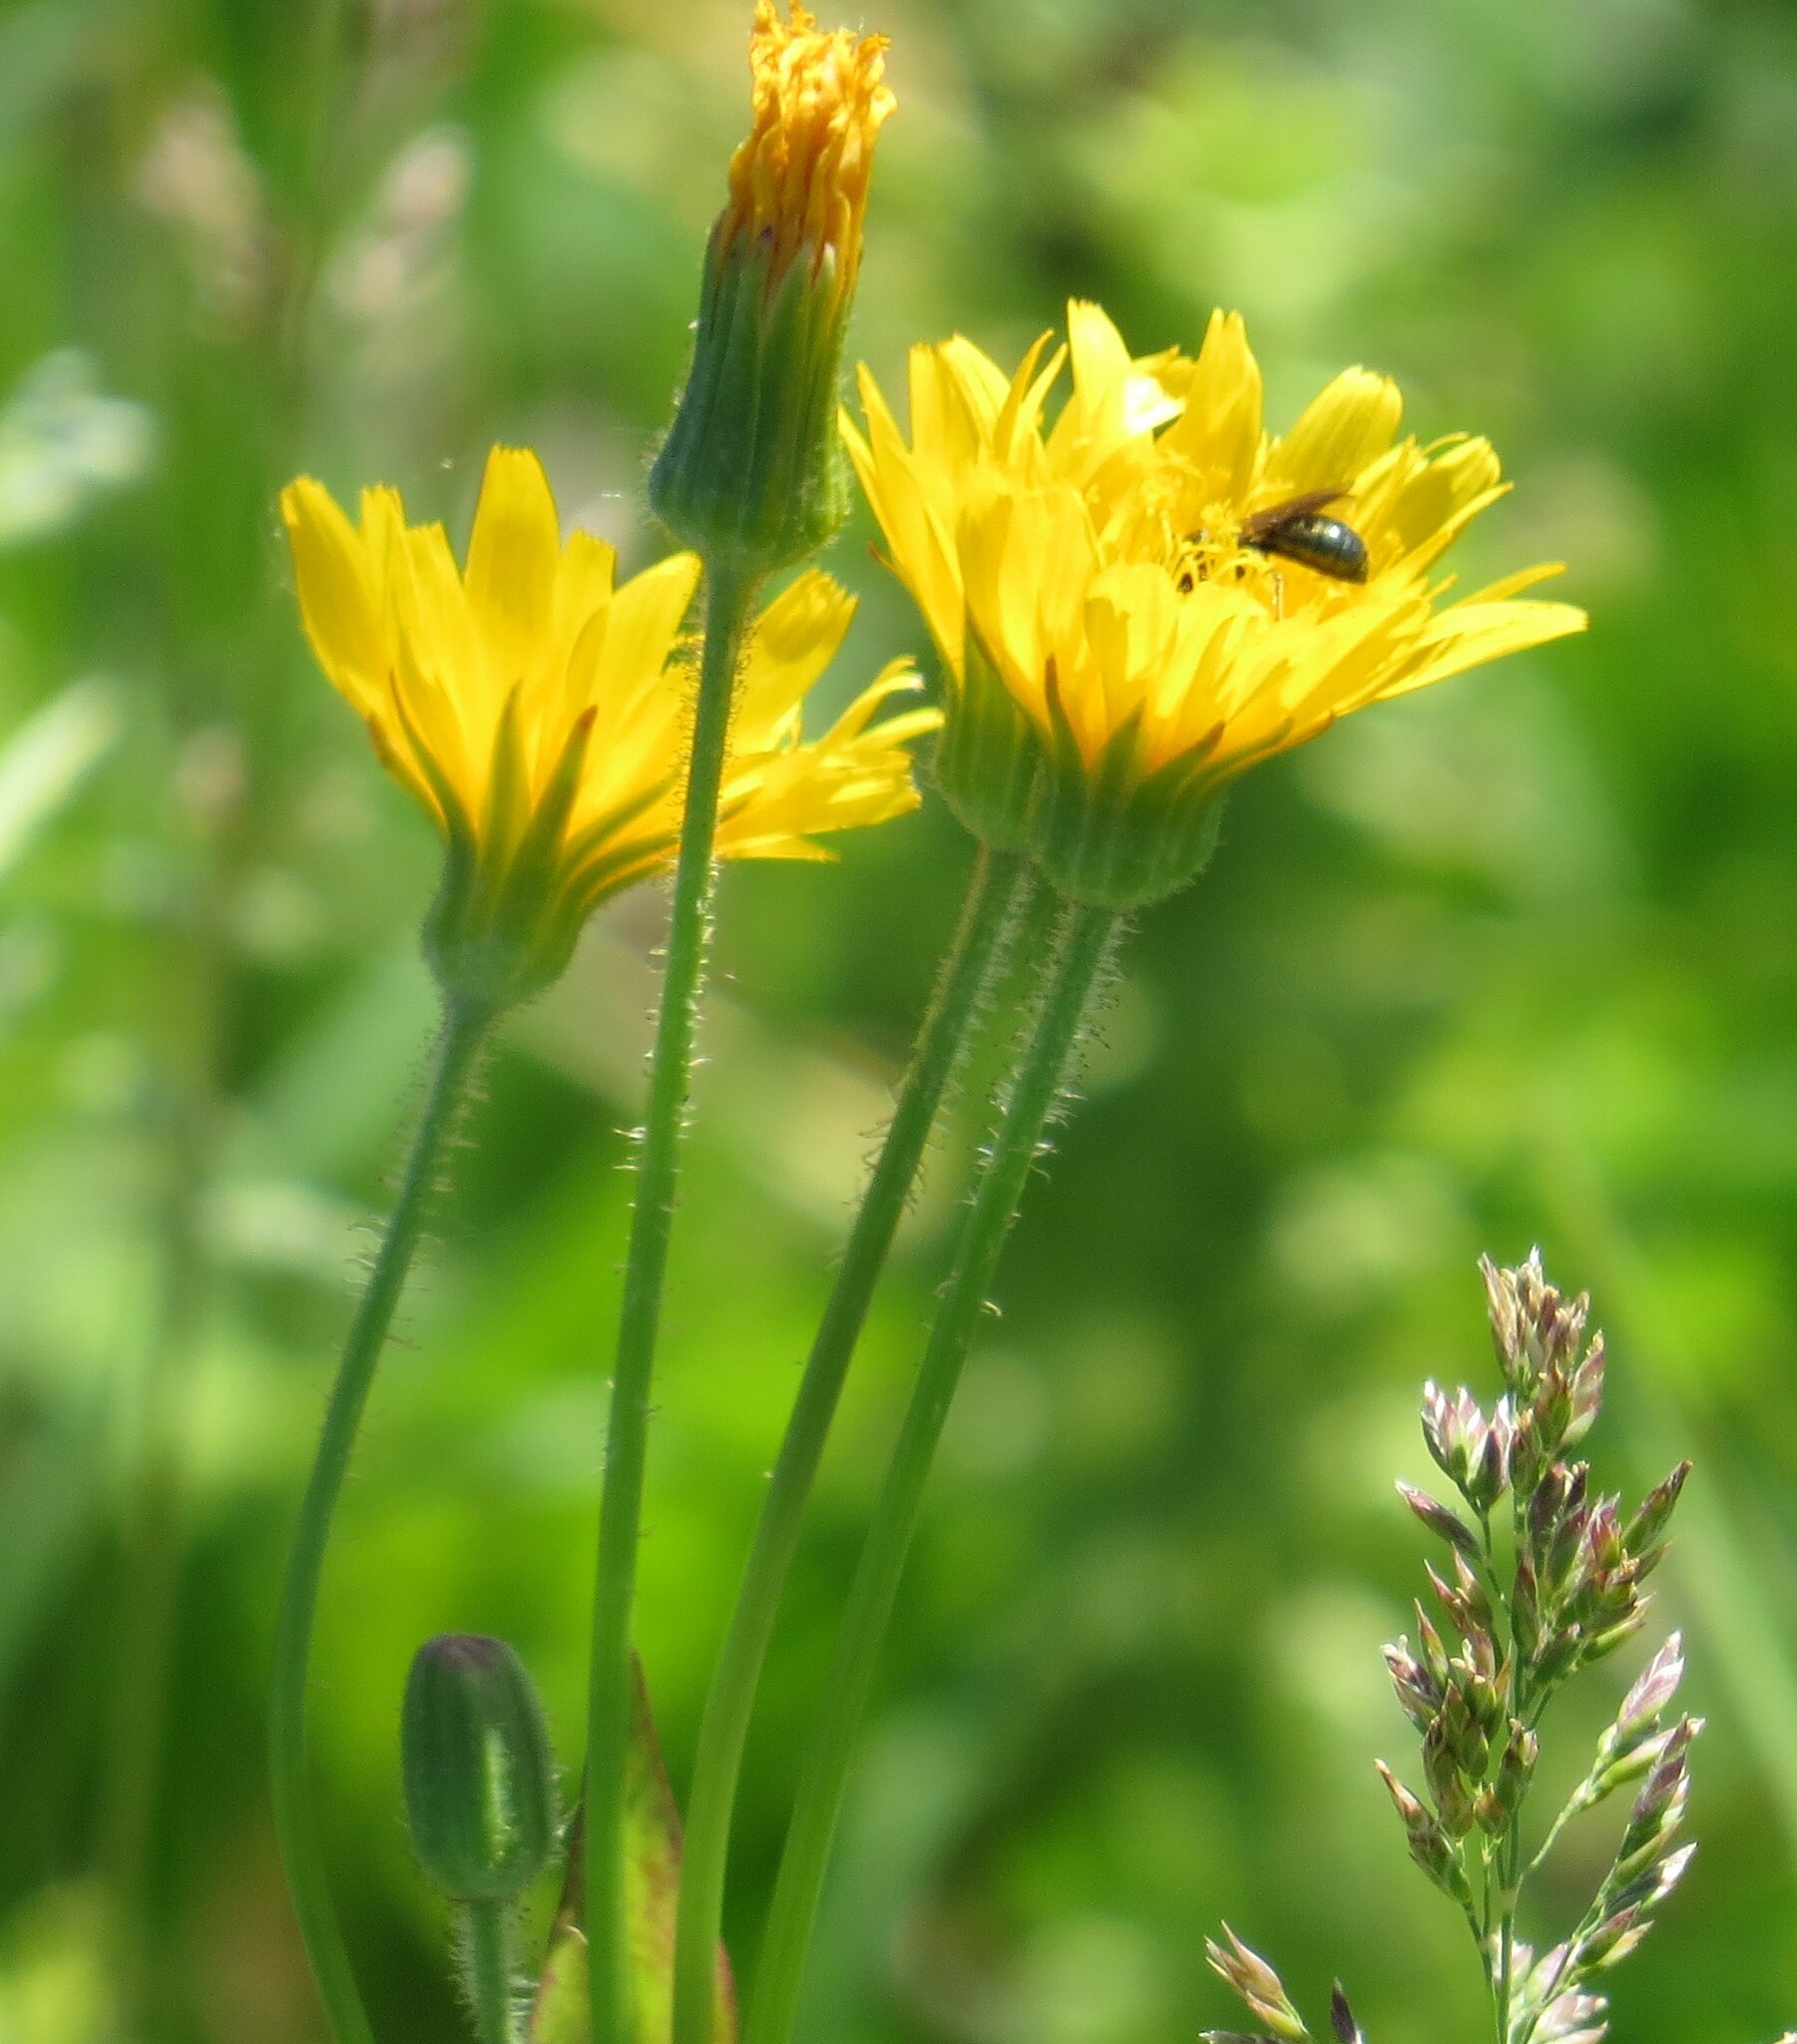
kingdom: Plantae
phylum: Tracheophyta
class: Magnoliopsida
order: Asterales
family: Asteraceae
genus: Krigia
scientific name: Krigia biflora
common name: Orange dwarf-dandelion
